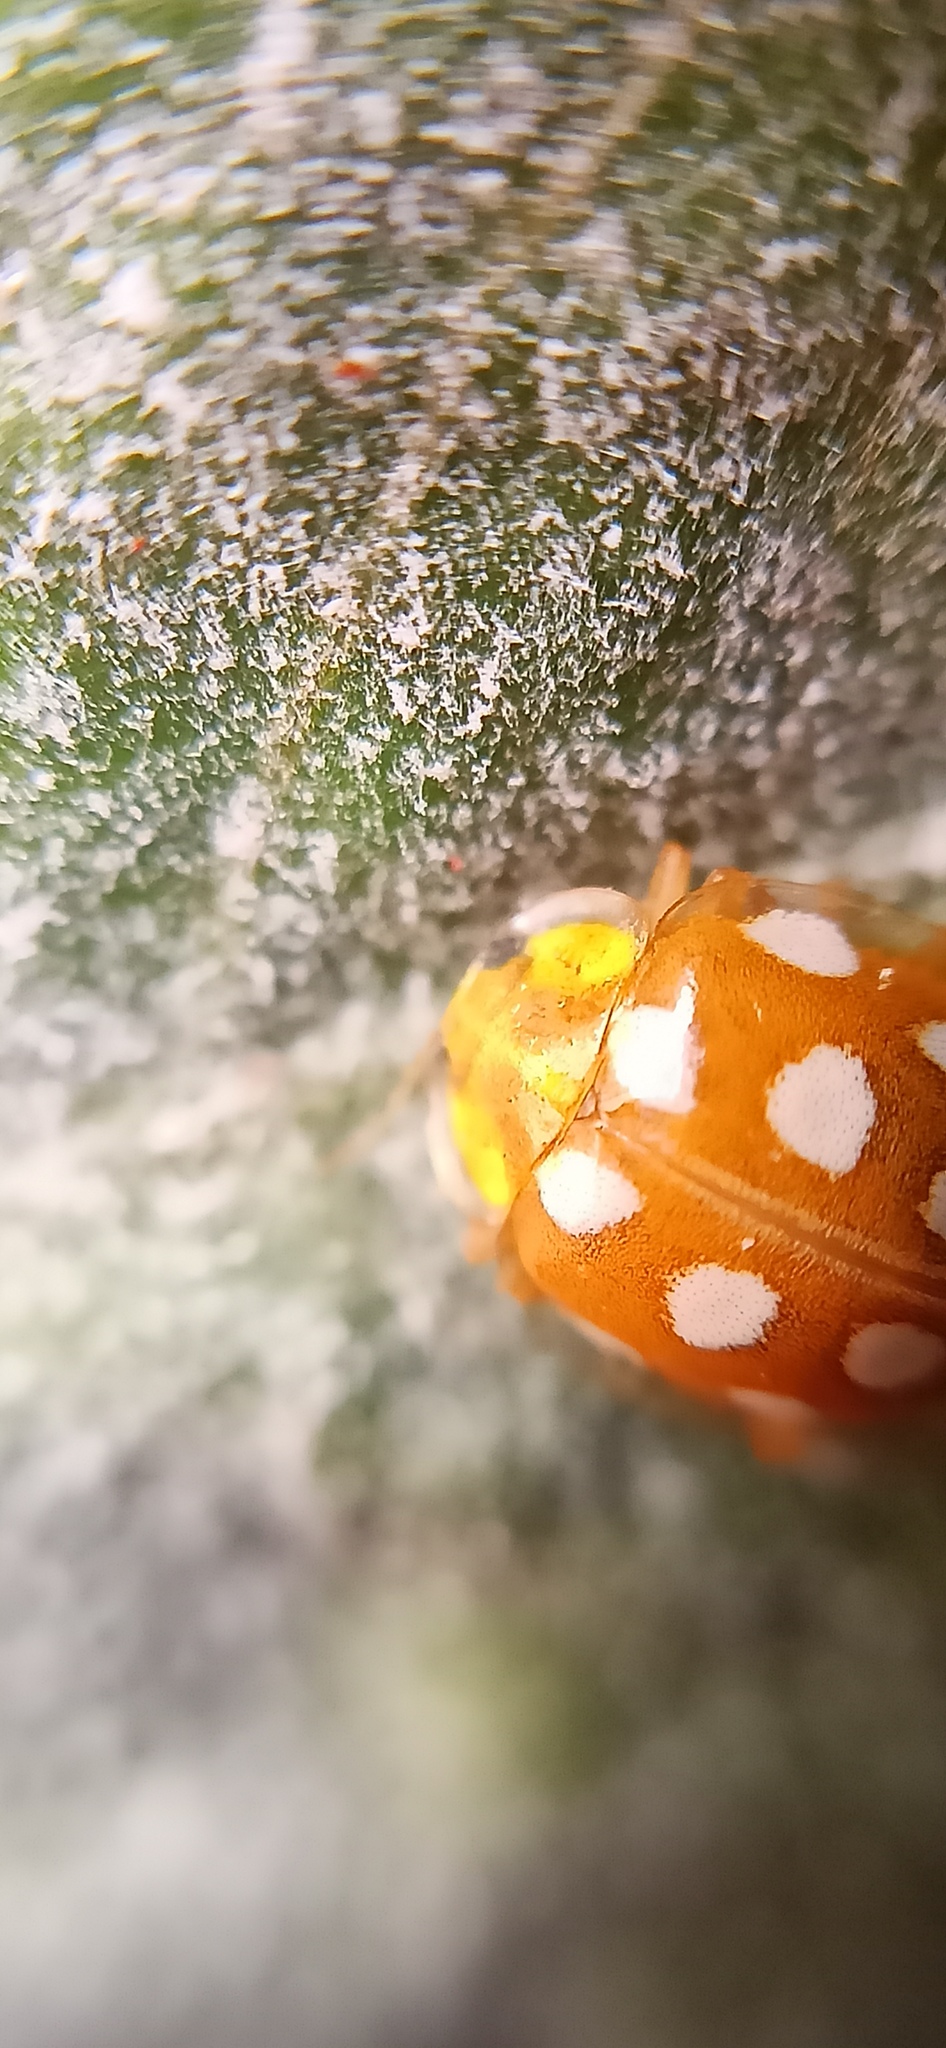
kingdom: Animalia
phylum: Arthropoda
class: Insecta
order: Coleoptera
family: Coccinellidae
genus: Halyzia
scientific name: Halyzia sedecimguttata
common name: Orange ladybird
